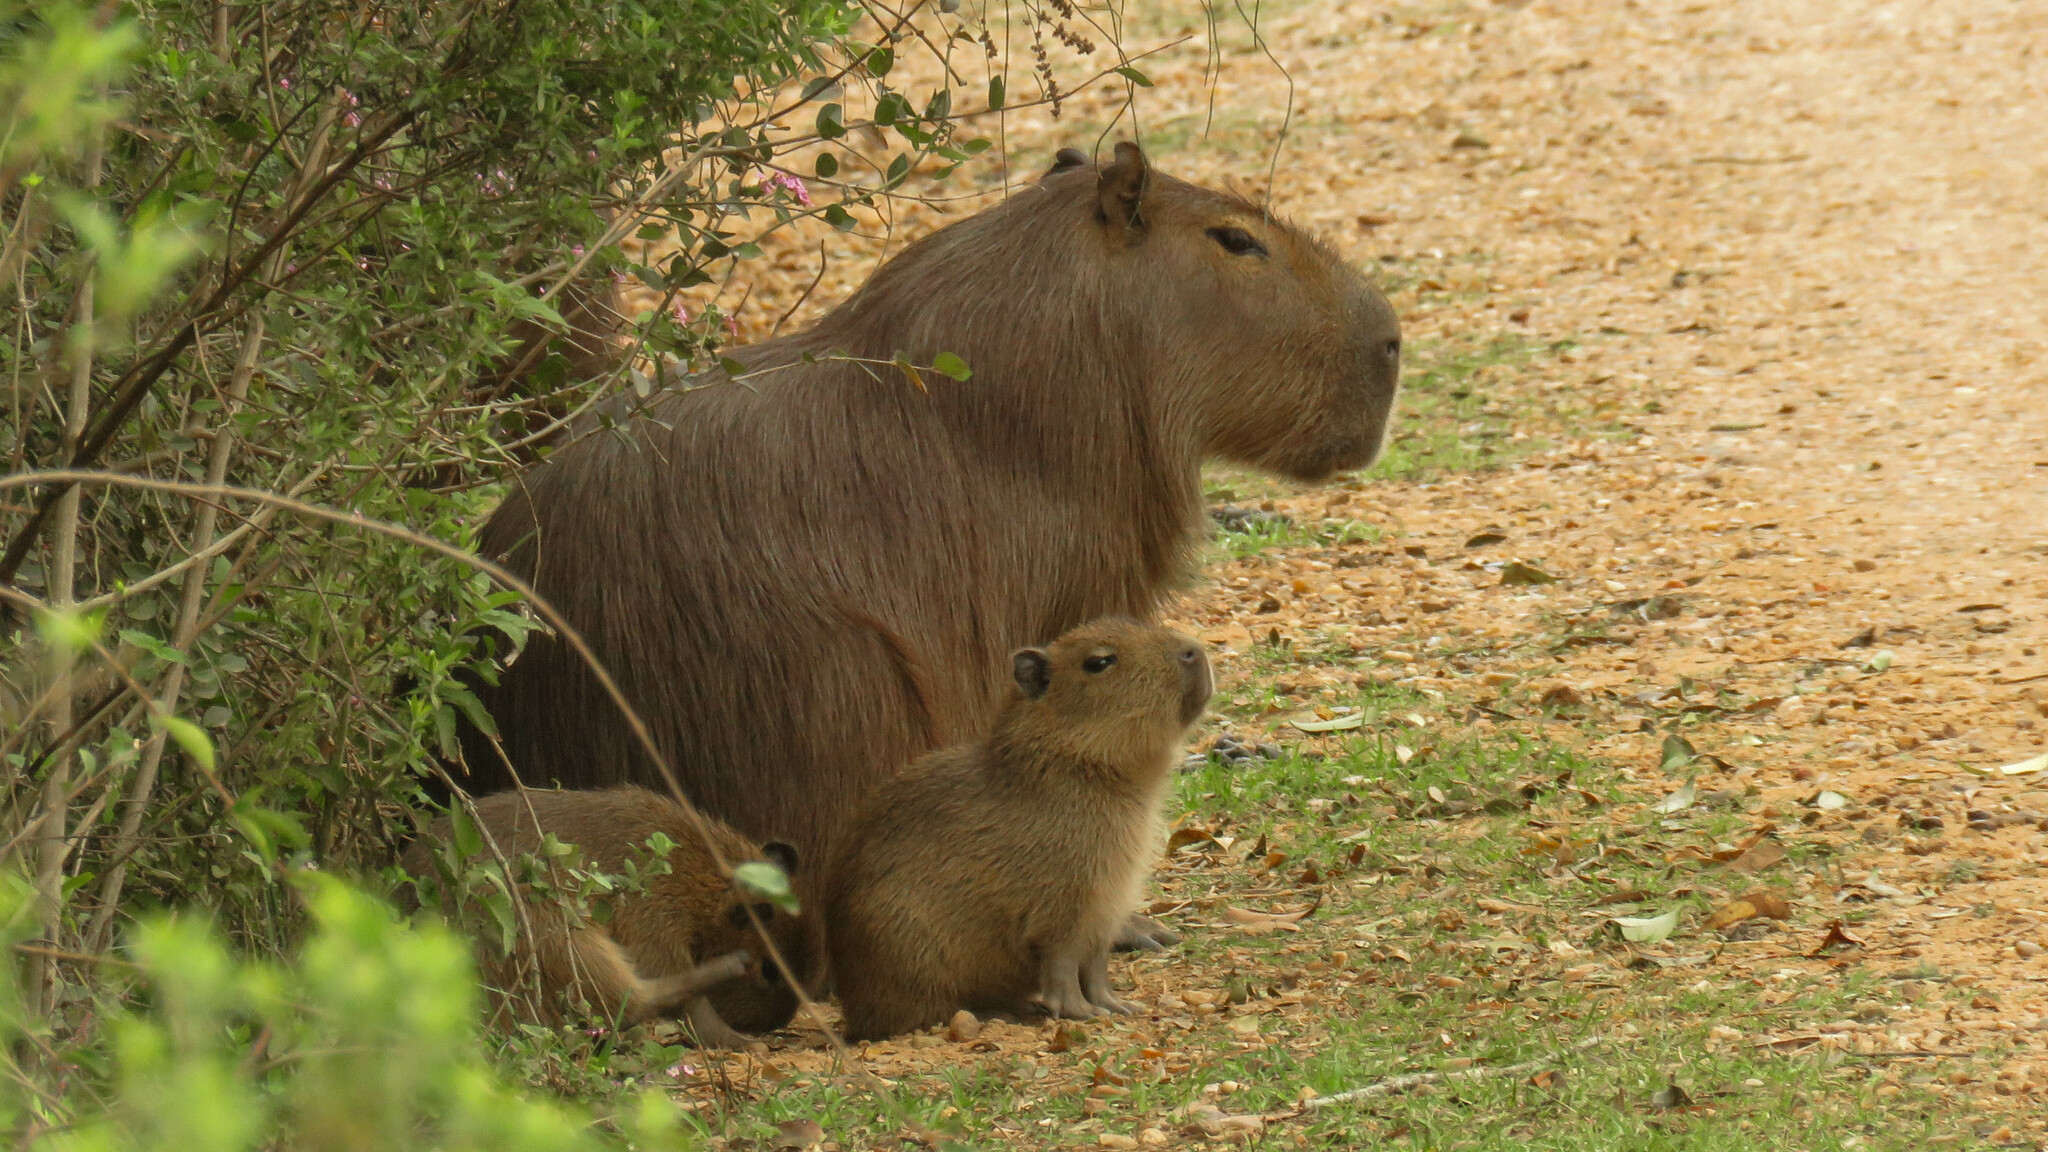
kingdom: Animalia
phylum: Chordata
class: Mammalia
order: Rodentia
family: Caviidae
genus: Hydrochoerus
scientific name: Hydrochoerus hydrochaeris
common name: Capybara
